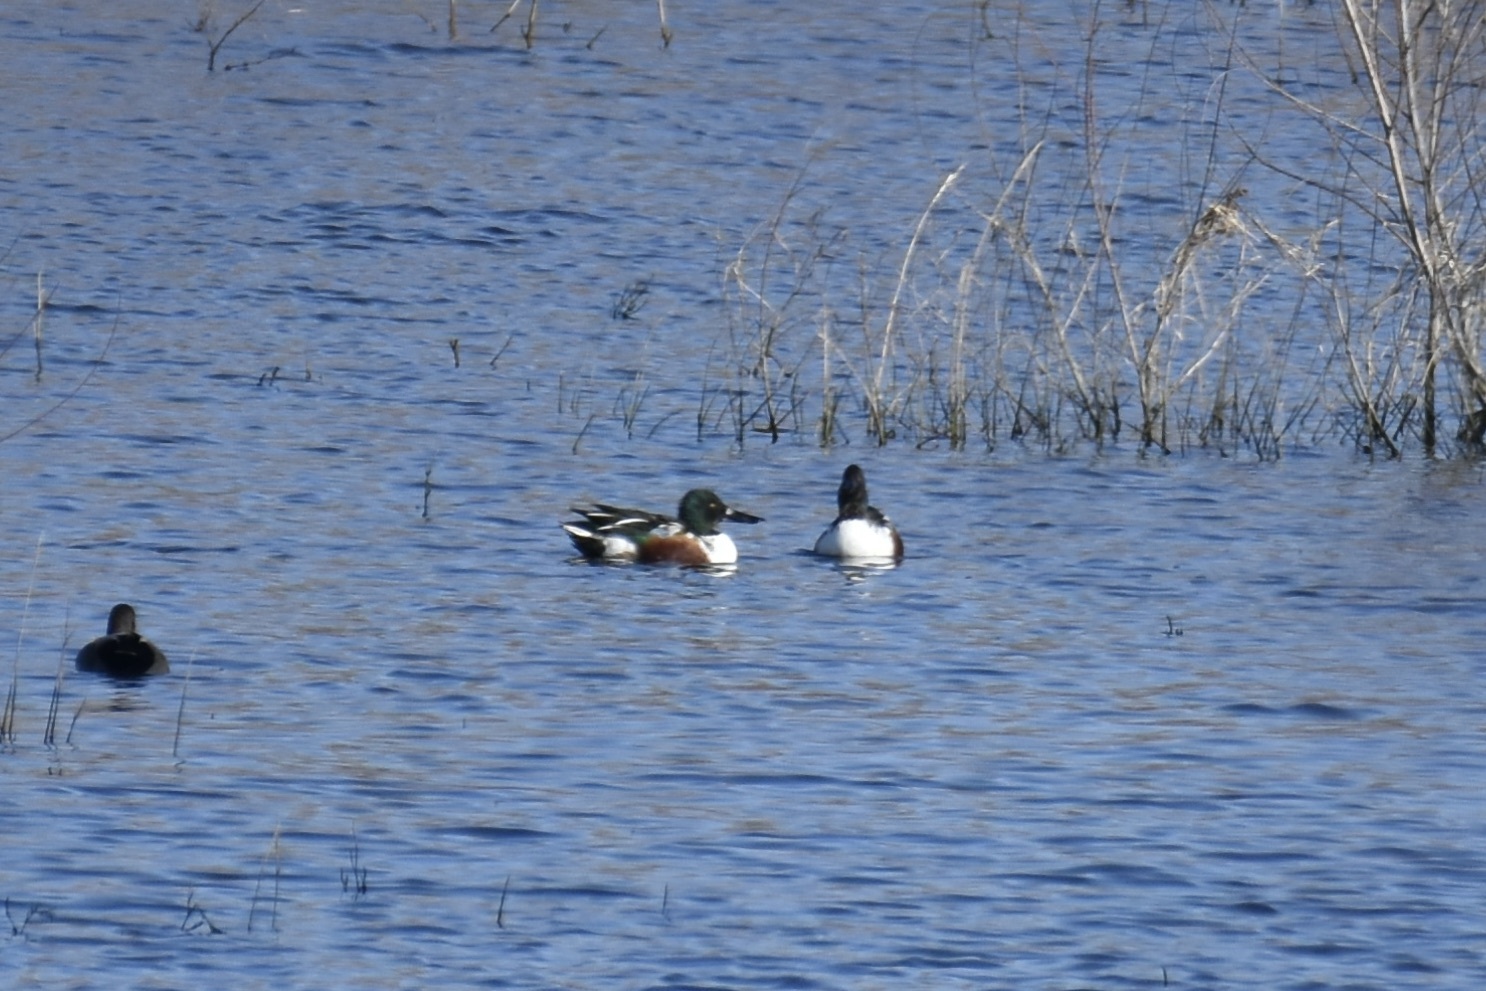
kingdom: Animalia
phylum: Chordata
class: Aves
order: Anseriformes
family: Anatidae
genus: Spatula
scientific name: Spatula clypeata
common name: Northern shoveler
